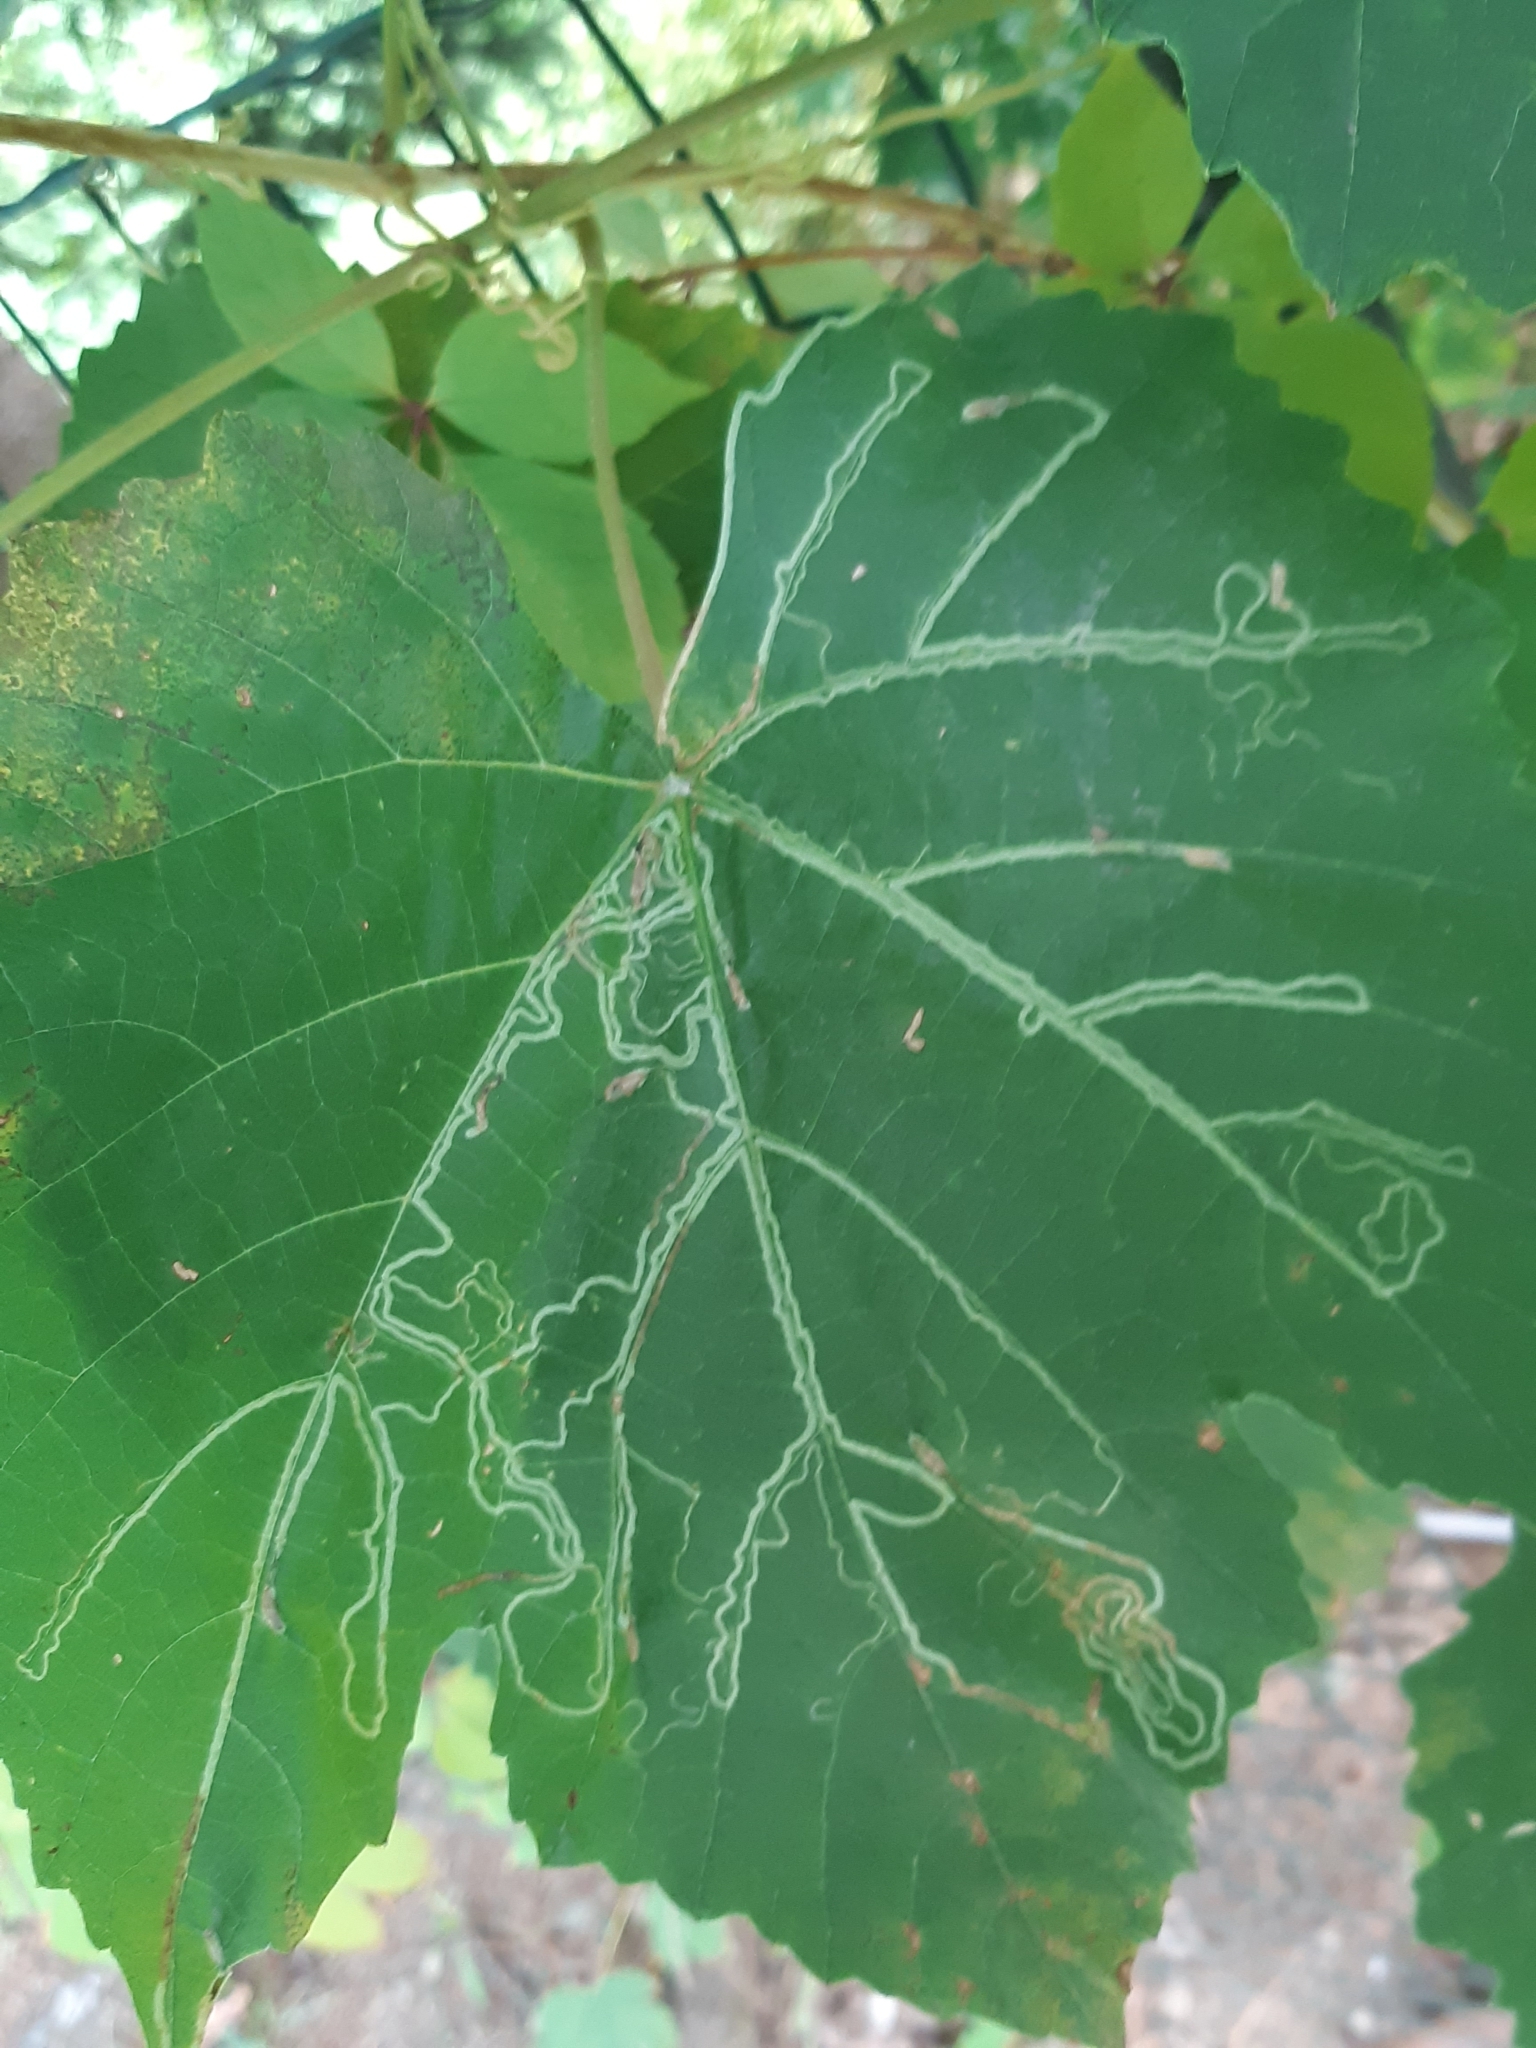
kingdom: Animalia
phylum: Arthropoda
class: Insecta
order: Lepidoptera
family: Gracillariidae
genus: Phyllocnistis
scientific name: Phyllocnistis vitegenella
